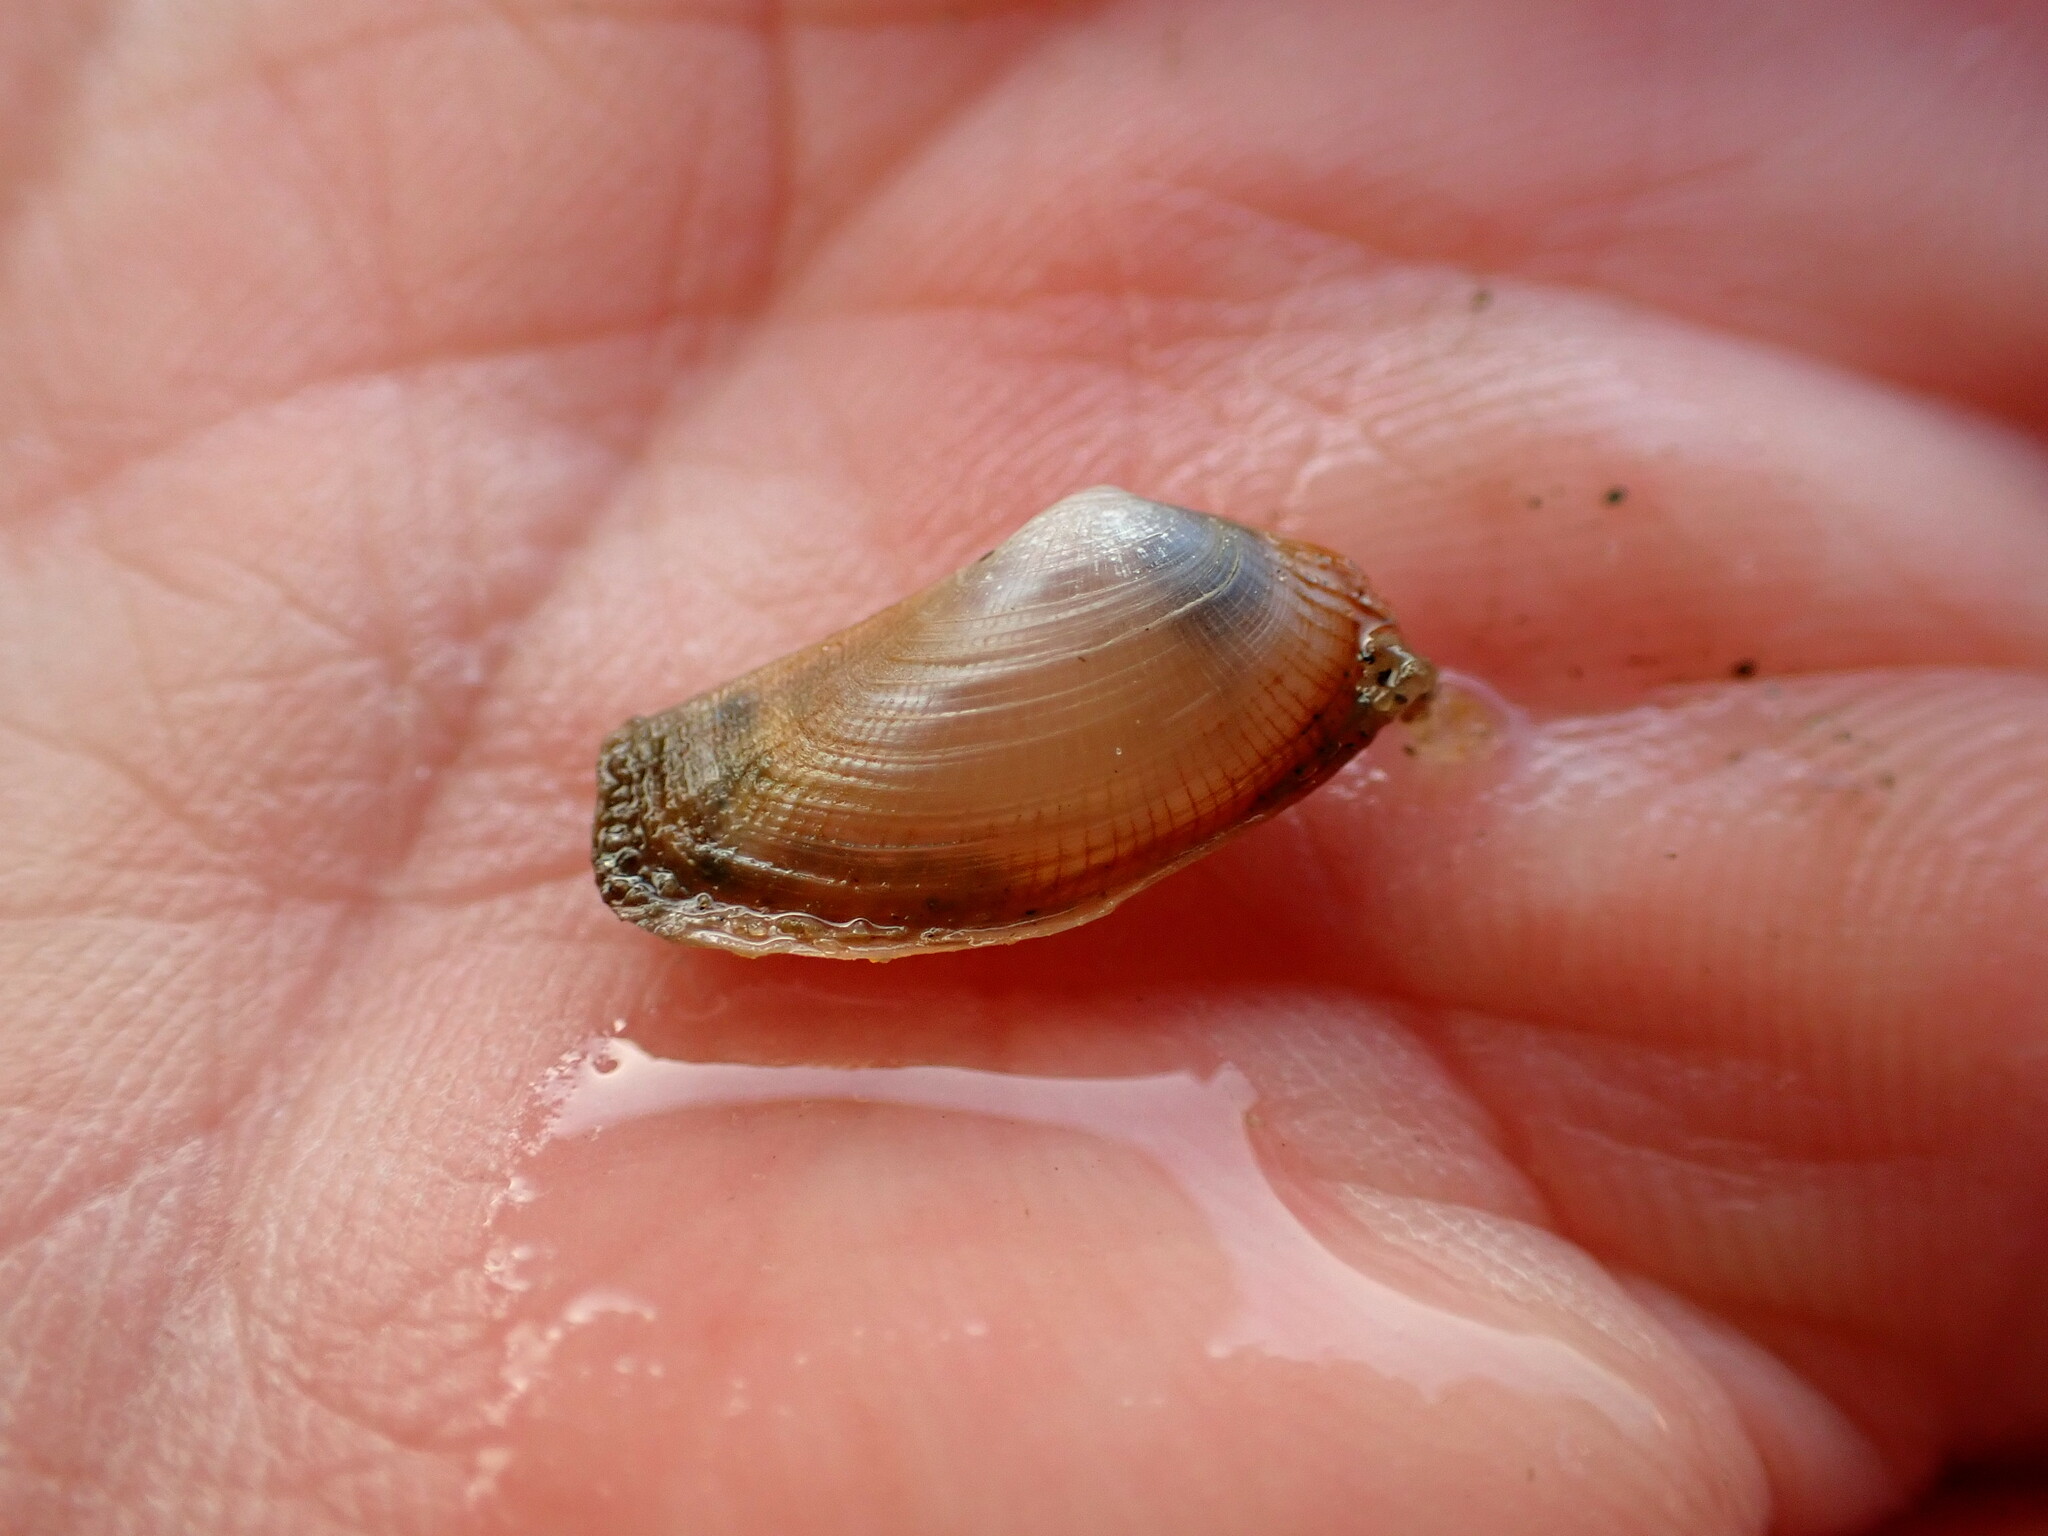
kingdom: Animalia
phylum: Mollusca
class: Bivalvia
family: Lyonsiidae
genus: Lyonsia
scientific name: Lyonsia californica
